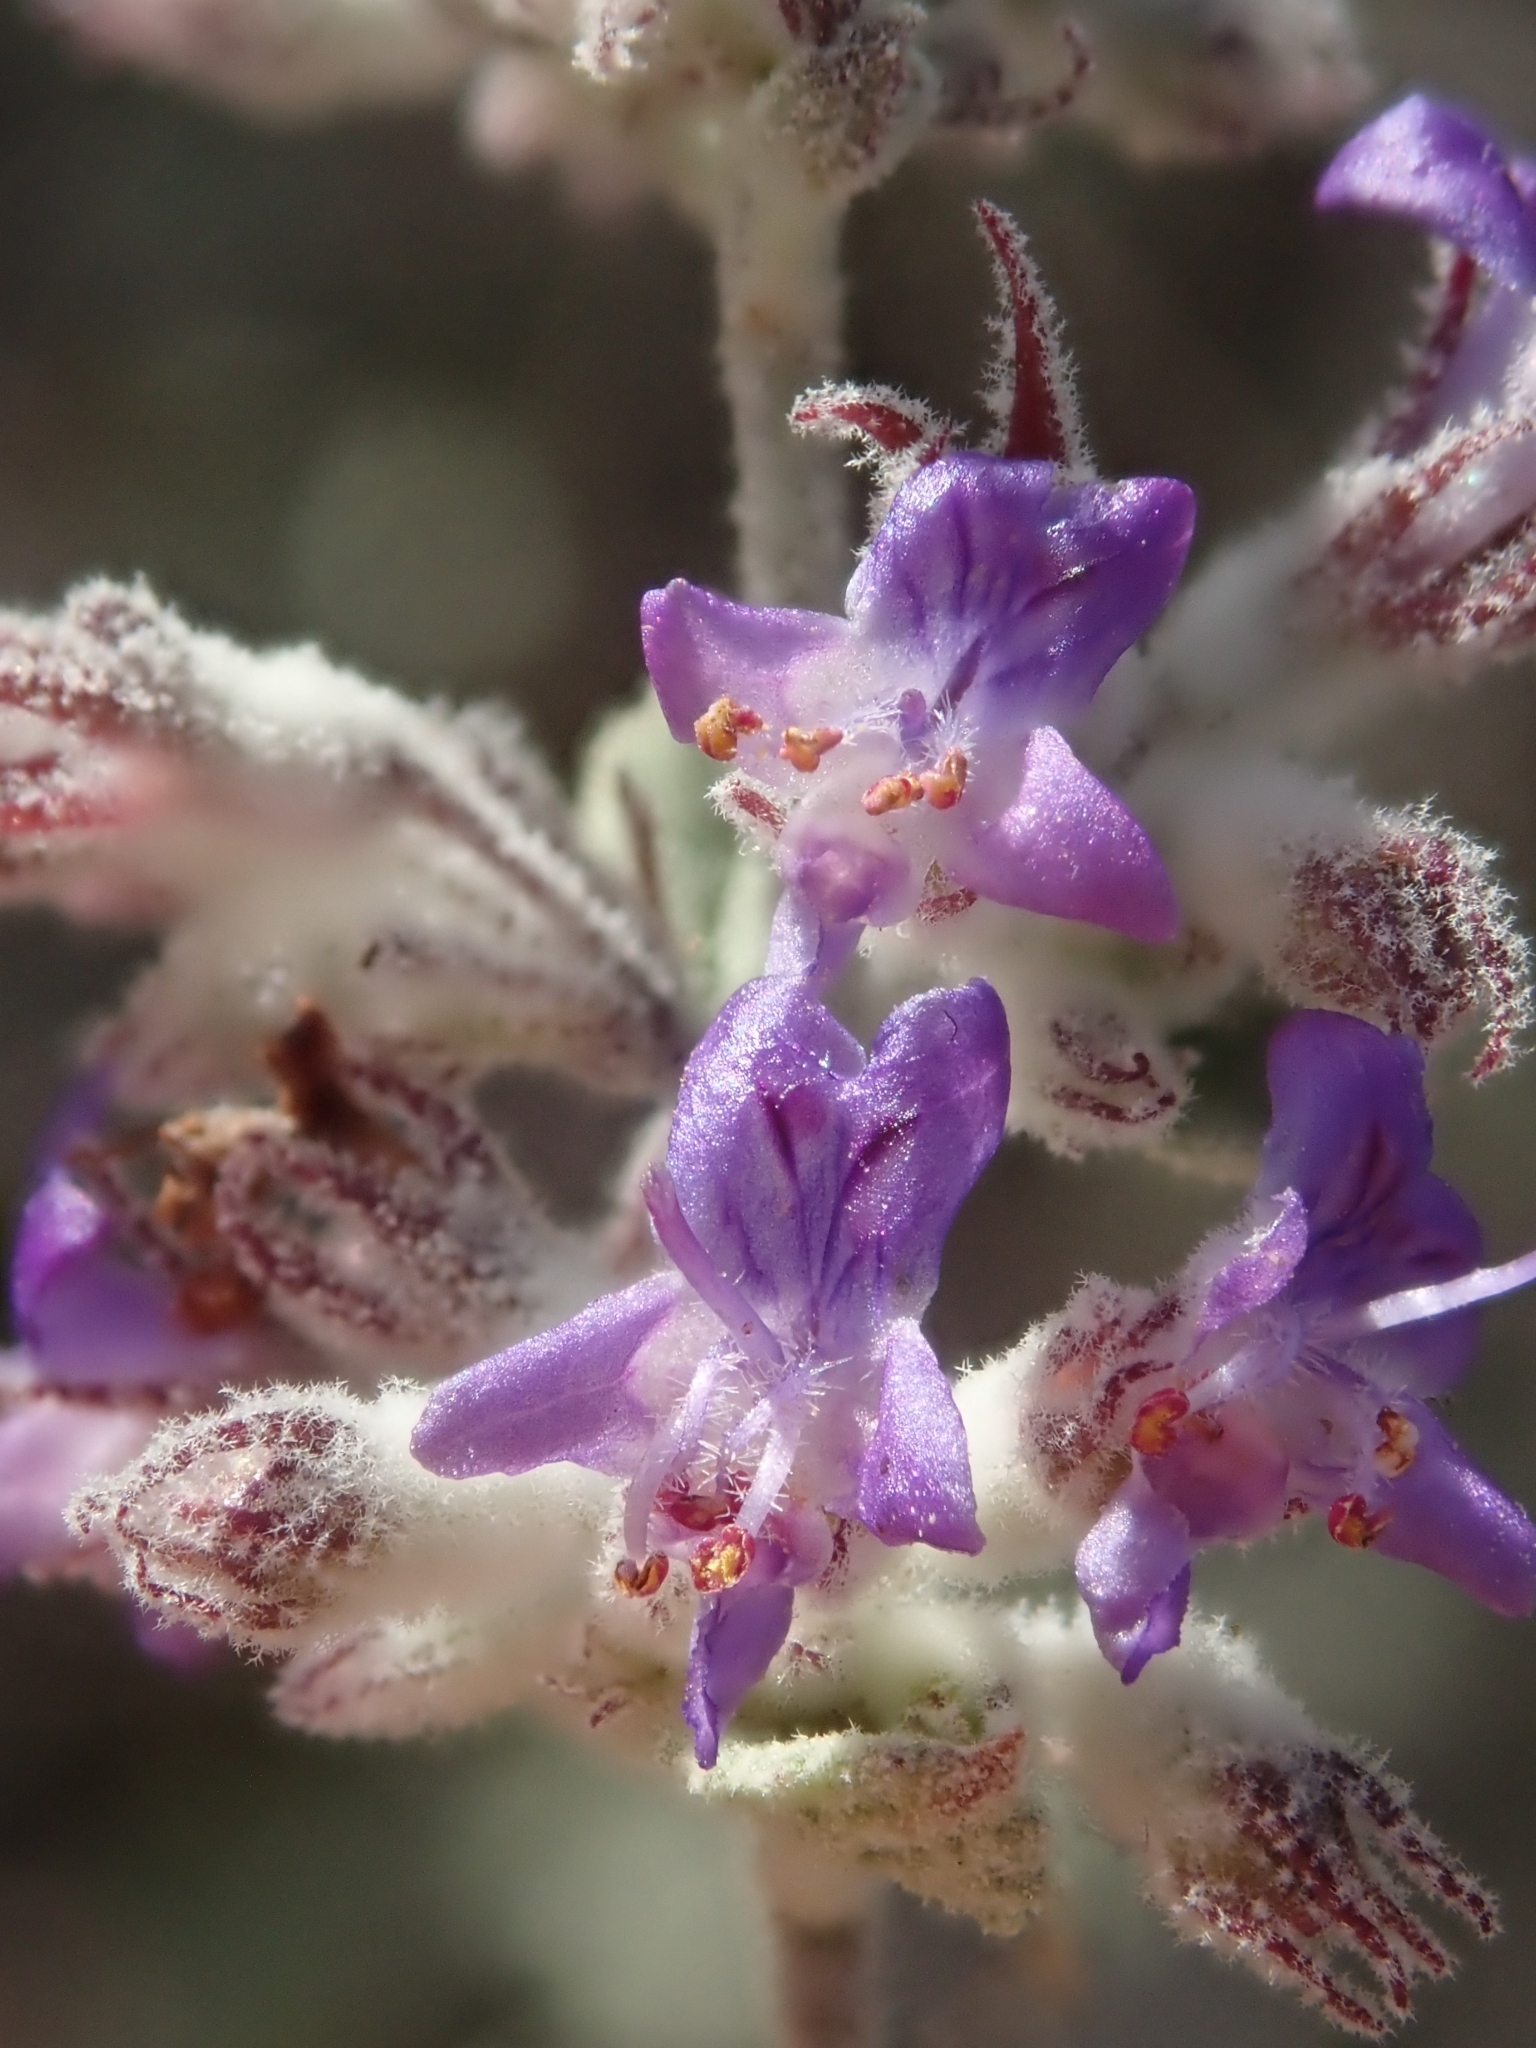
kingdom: Plantae
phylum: Tracheophyta
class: Magnoliopsida
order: Lamiales
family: Lamiaceae
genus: Condea
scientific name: Condea emoryi
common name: Chia
